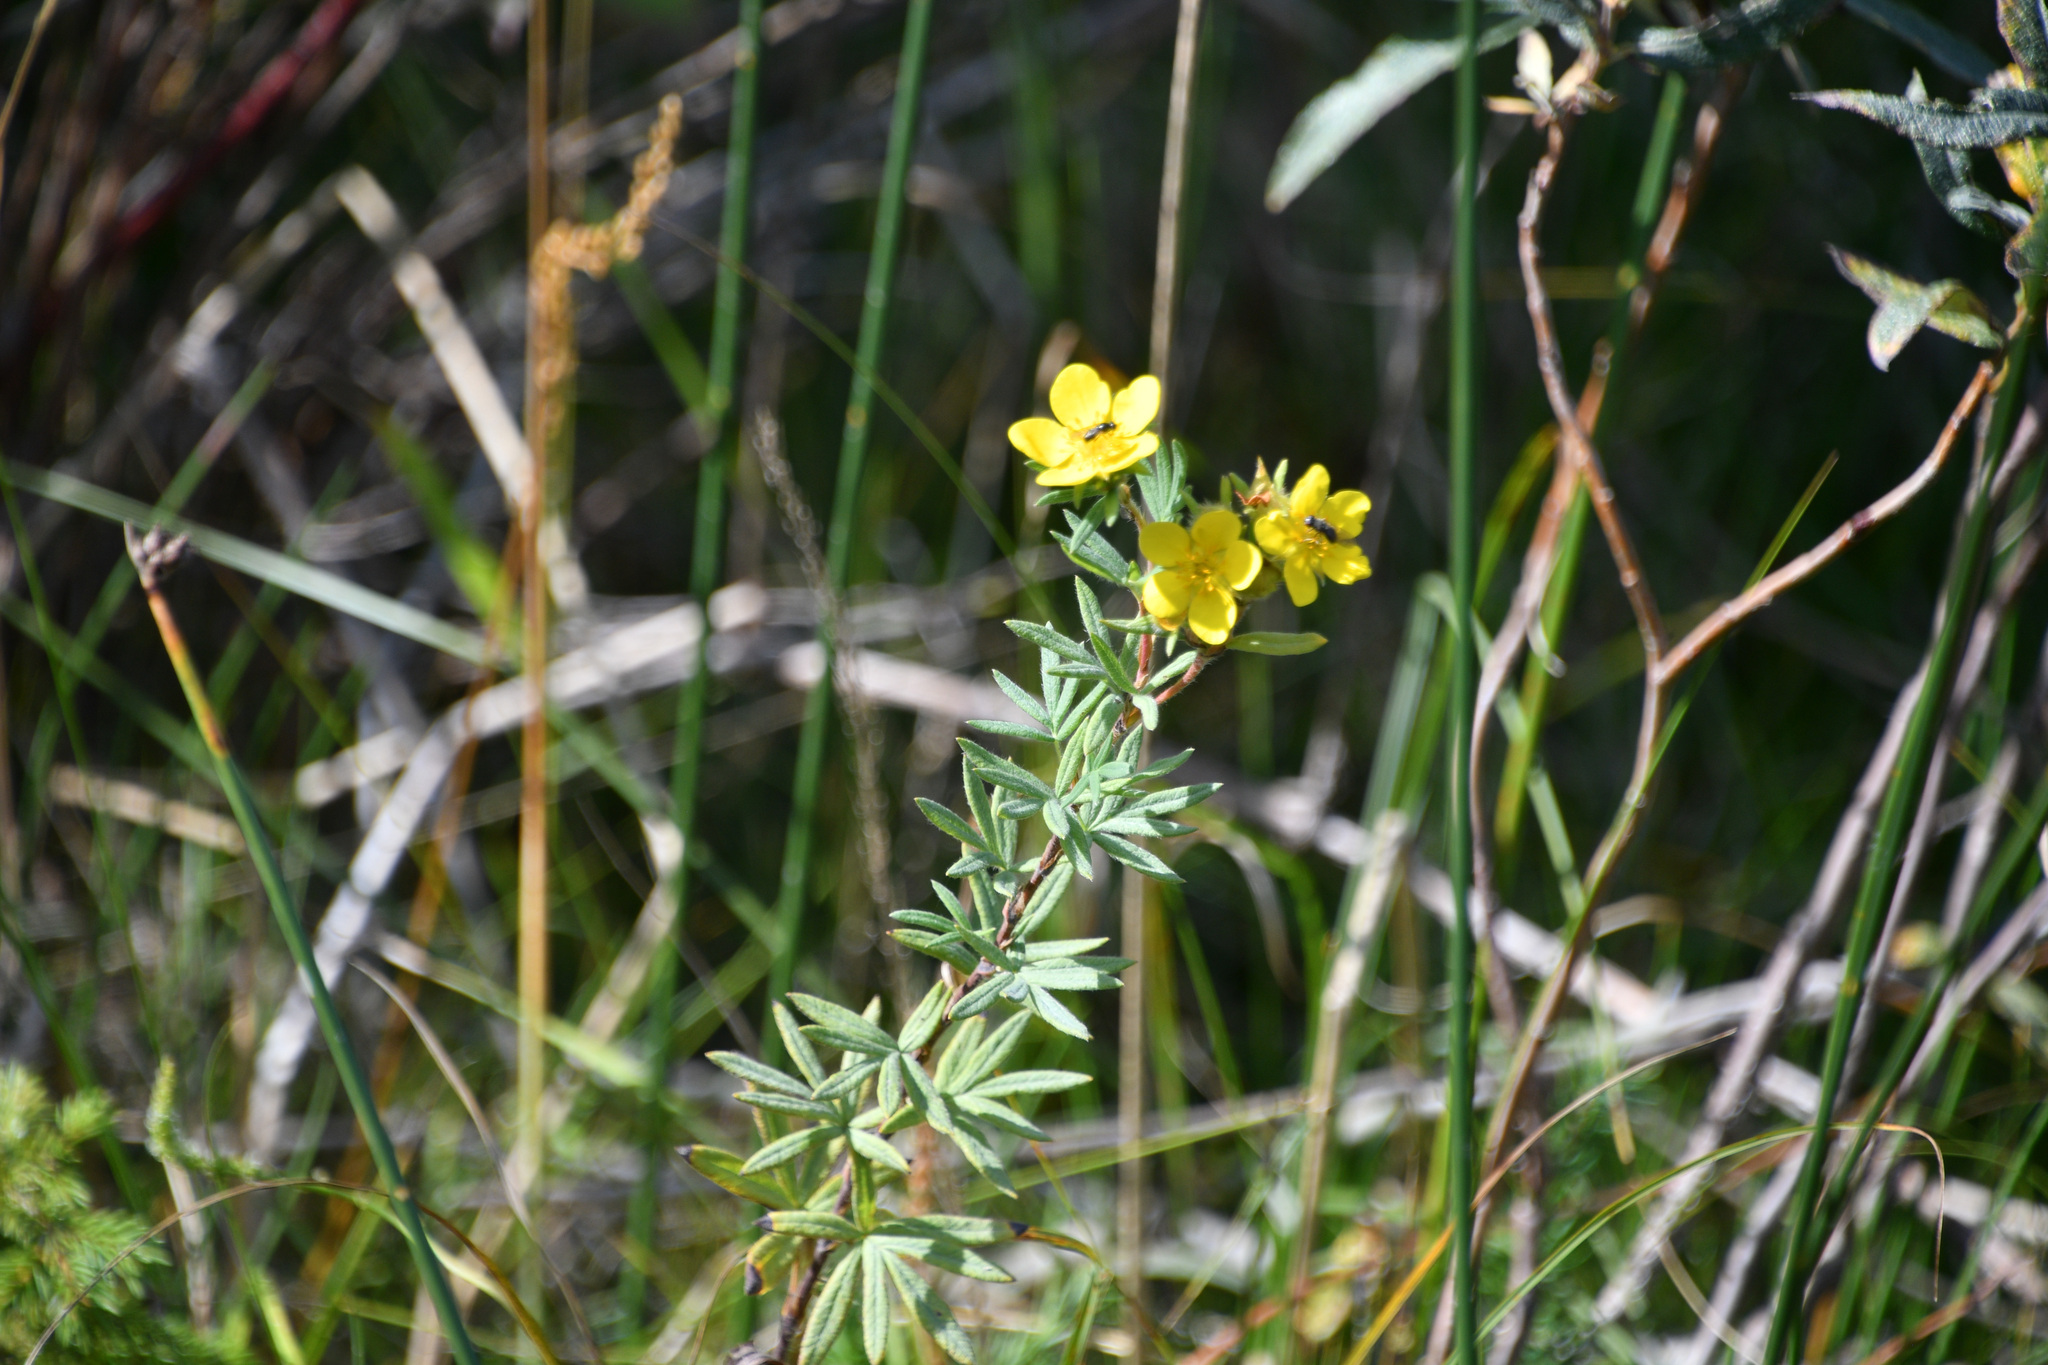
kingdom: Plantae
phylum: Tracheophyta
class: Magnoliopsida
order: Rosales
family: Rosaceae
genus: Dasiphora
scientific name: Dasiphora fruticosa
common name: Shrubby cinquefoil
